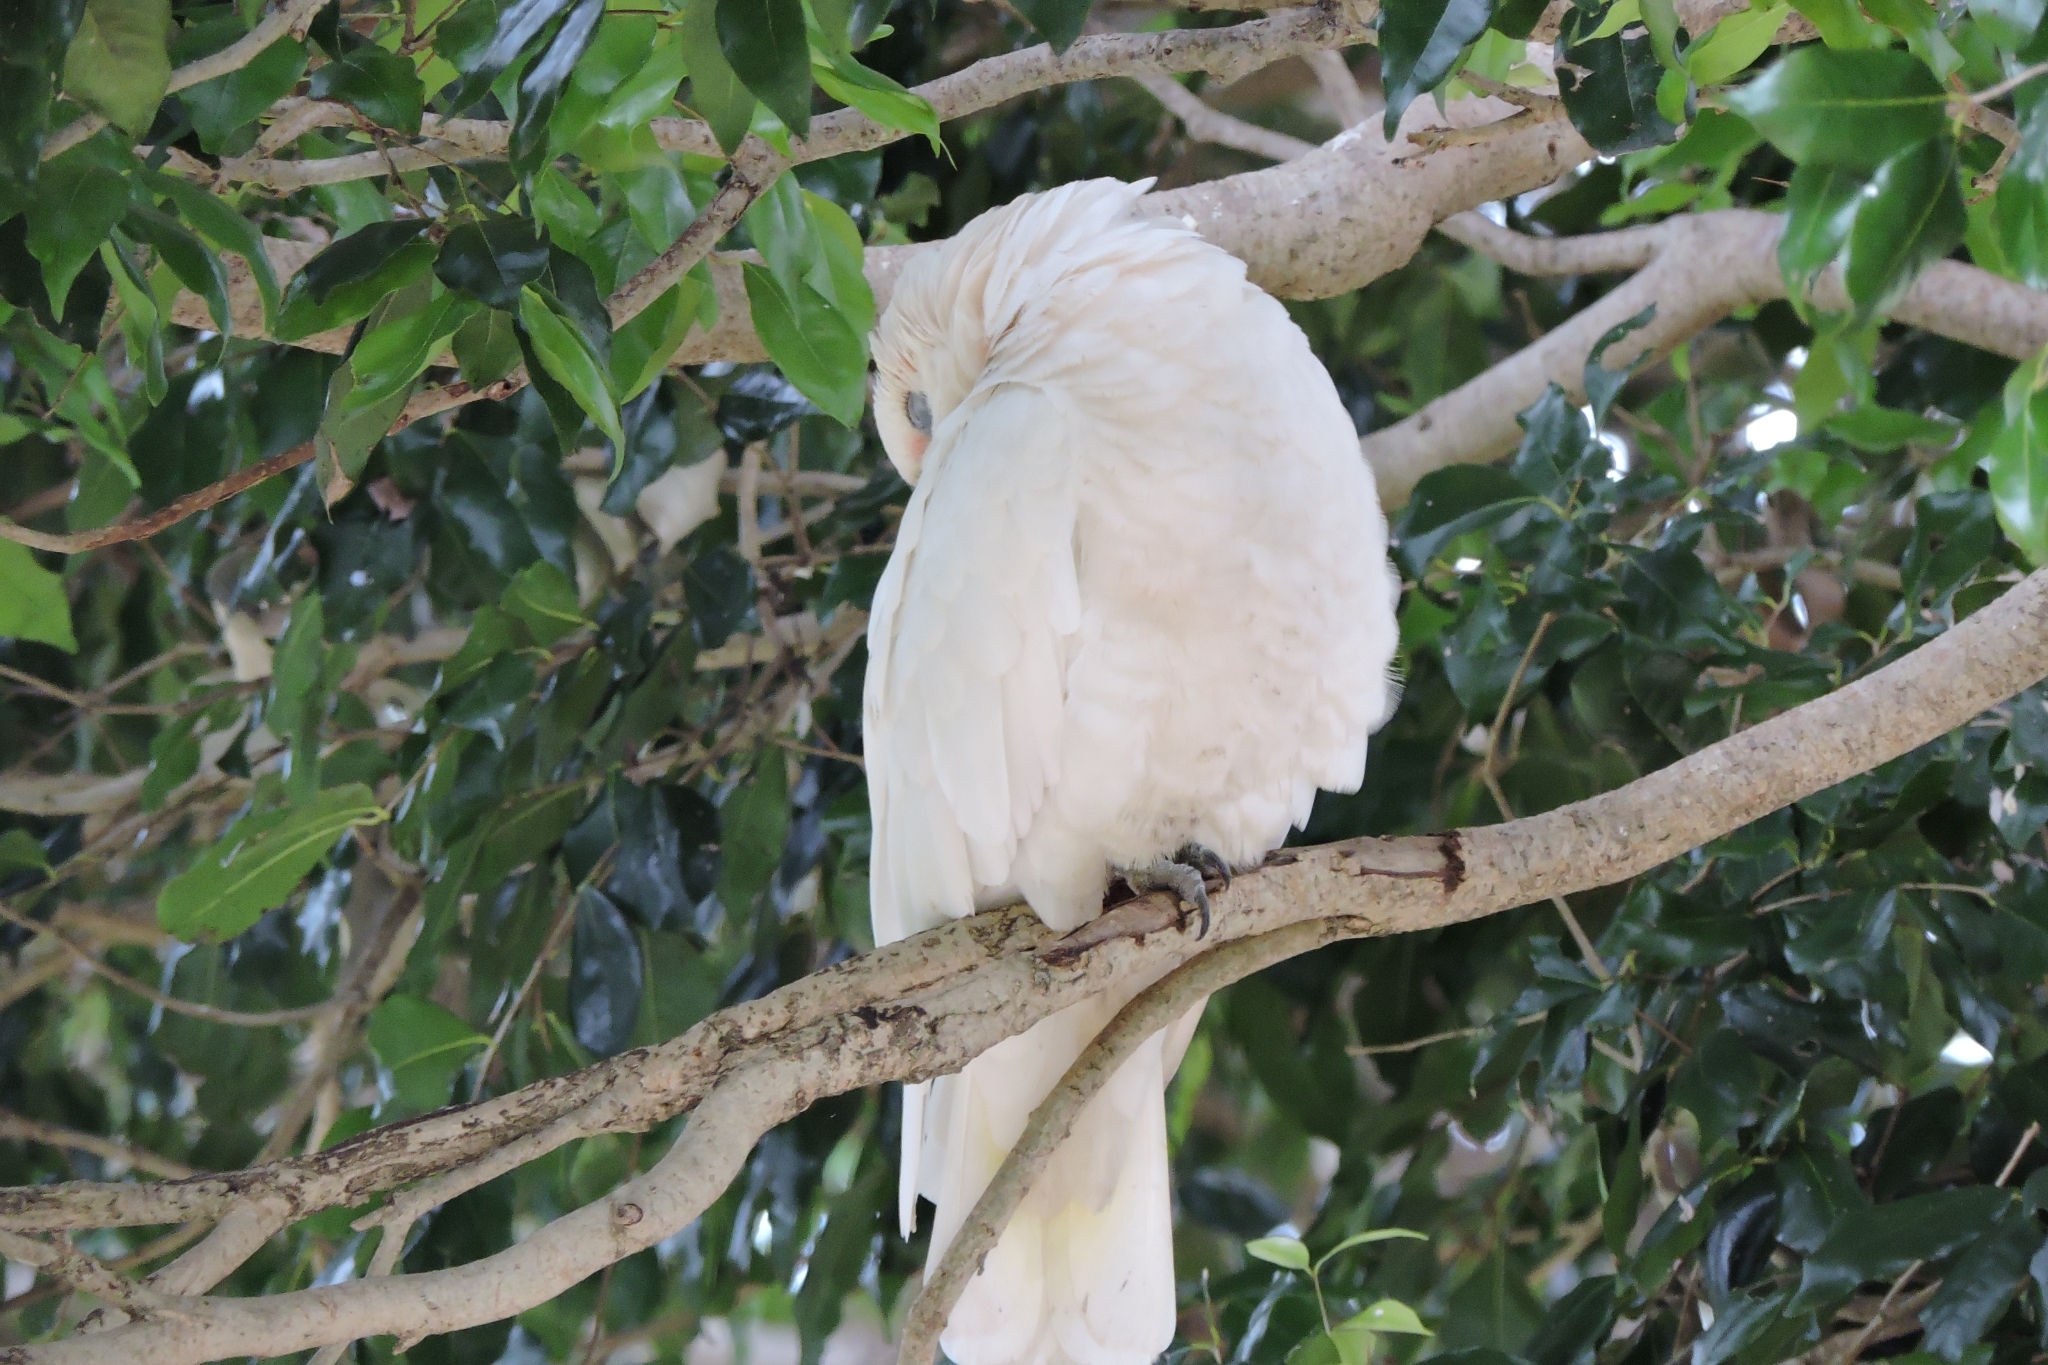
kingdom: Animalia
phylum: Chordata
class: Aves
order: Psittaciformes
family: Psittacidae
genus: Cacatua
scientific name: Cacatua sanguinea
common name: Little corella
